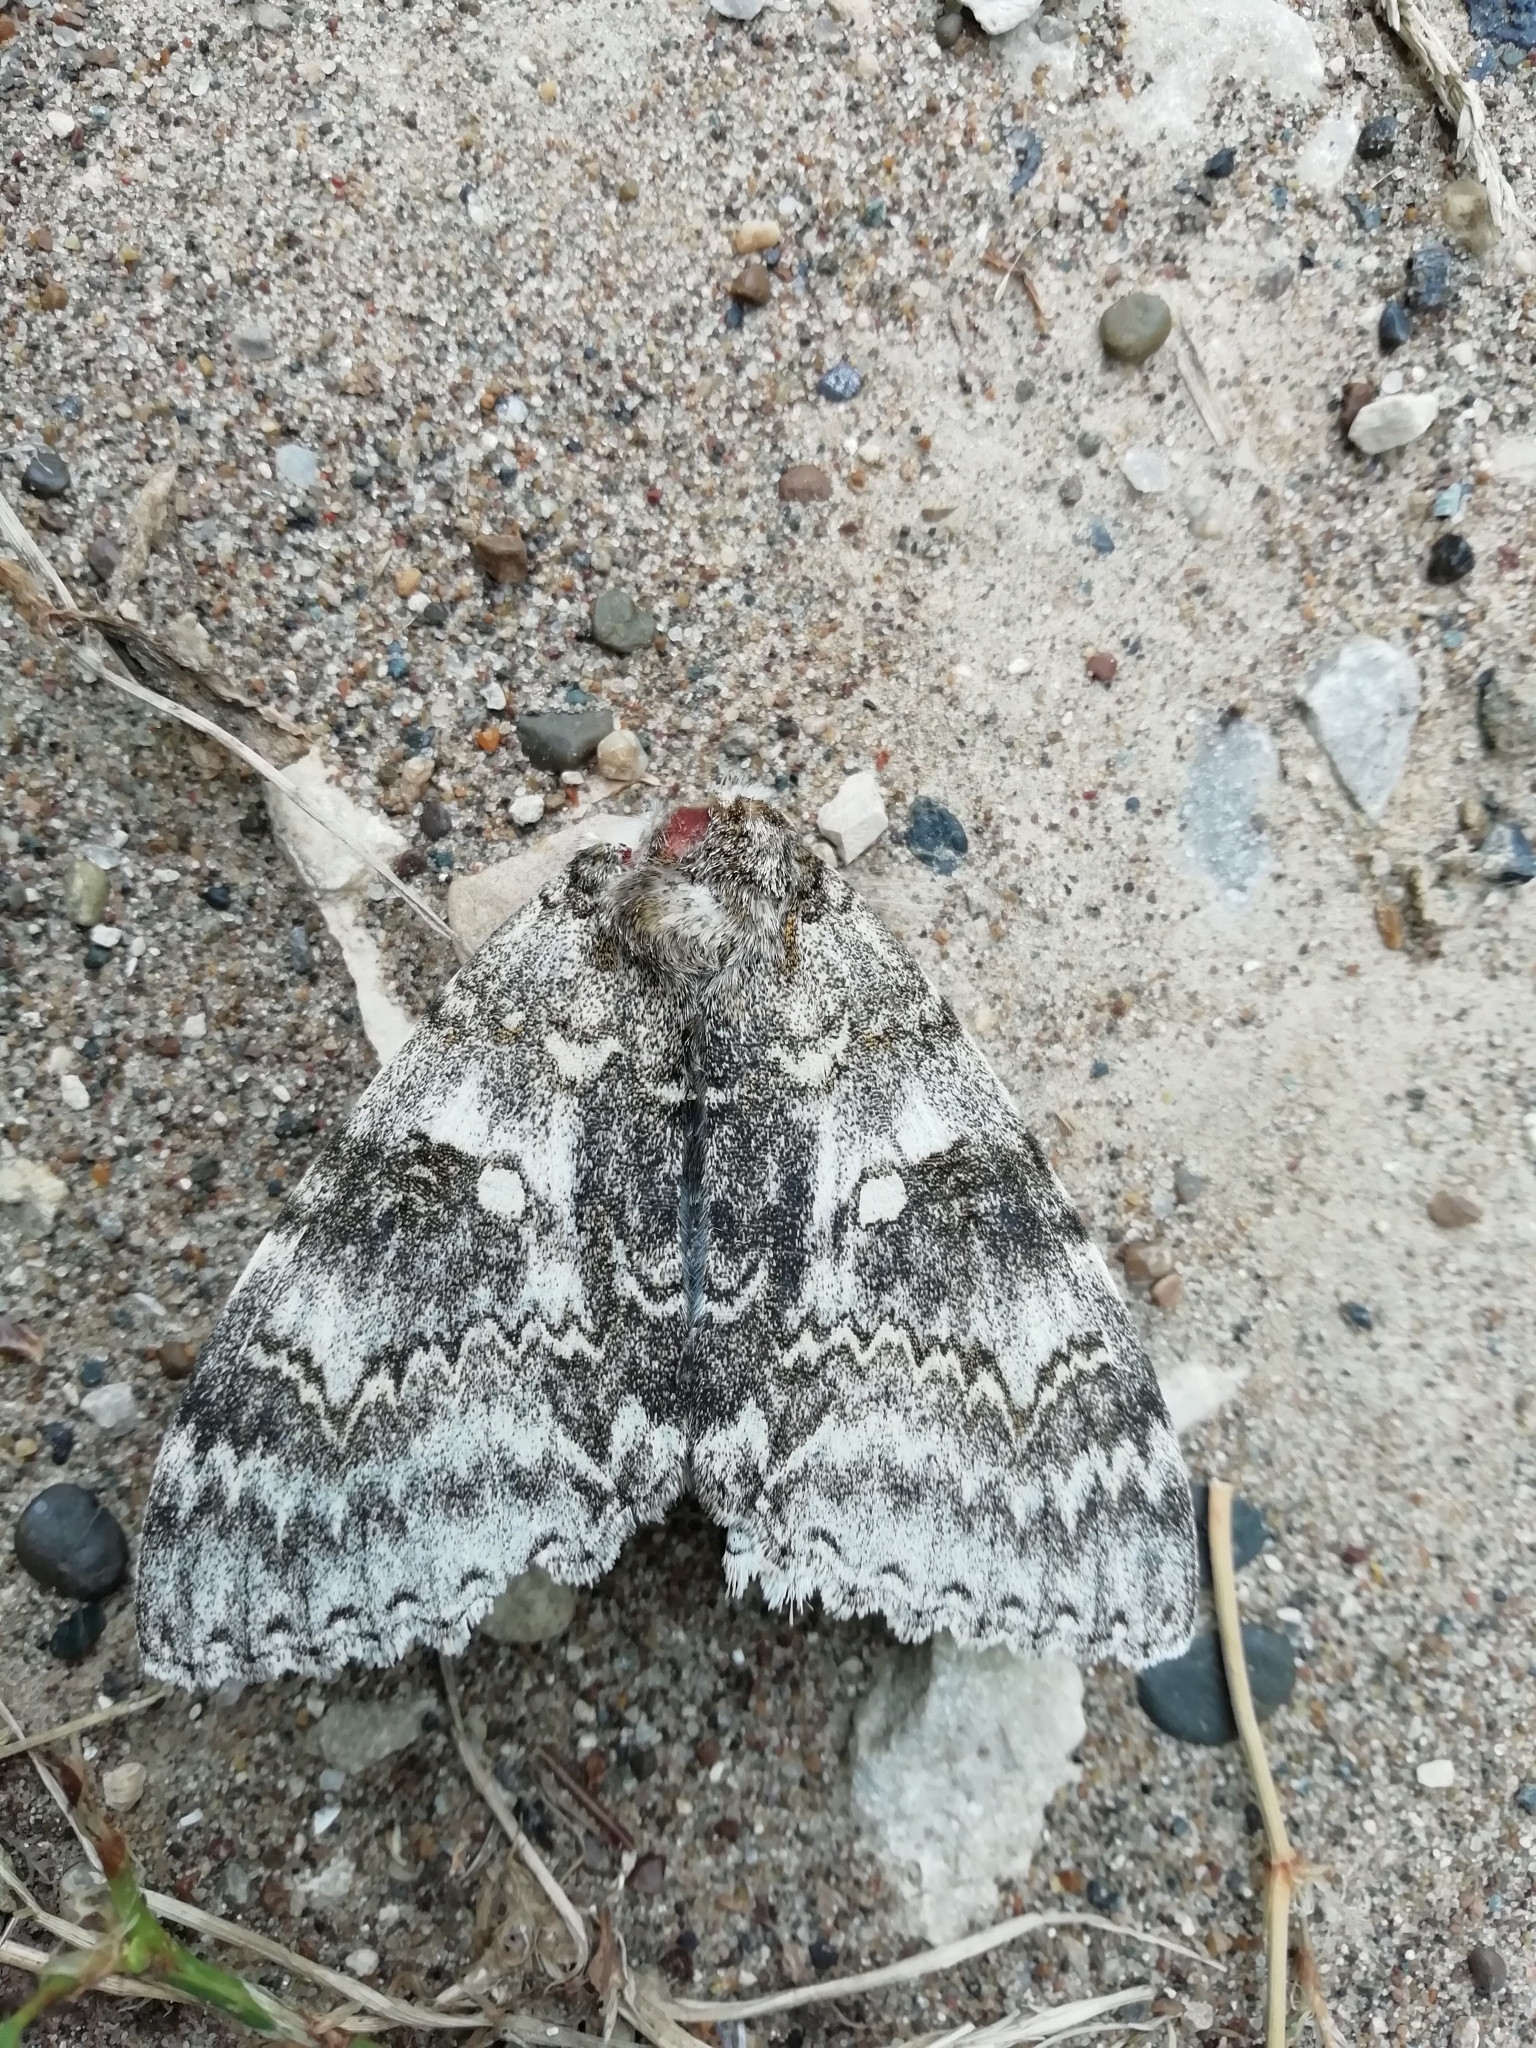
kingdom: Animalia
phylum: Arthropoda
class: Insecta
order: Lepidoptera
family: Erebidae
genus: Catocala
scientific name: Catocala fraxini
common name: Clifden nonpareil
